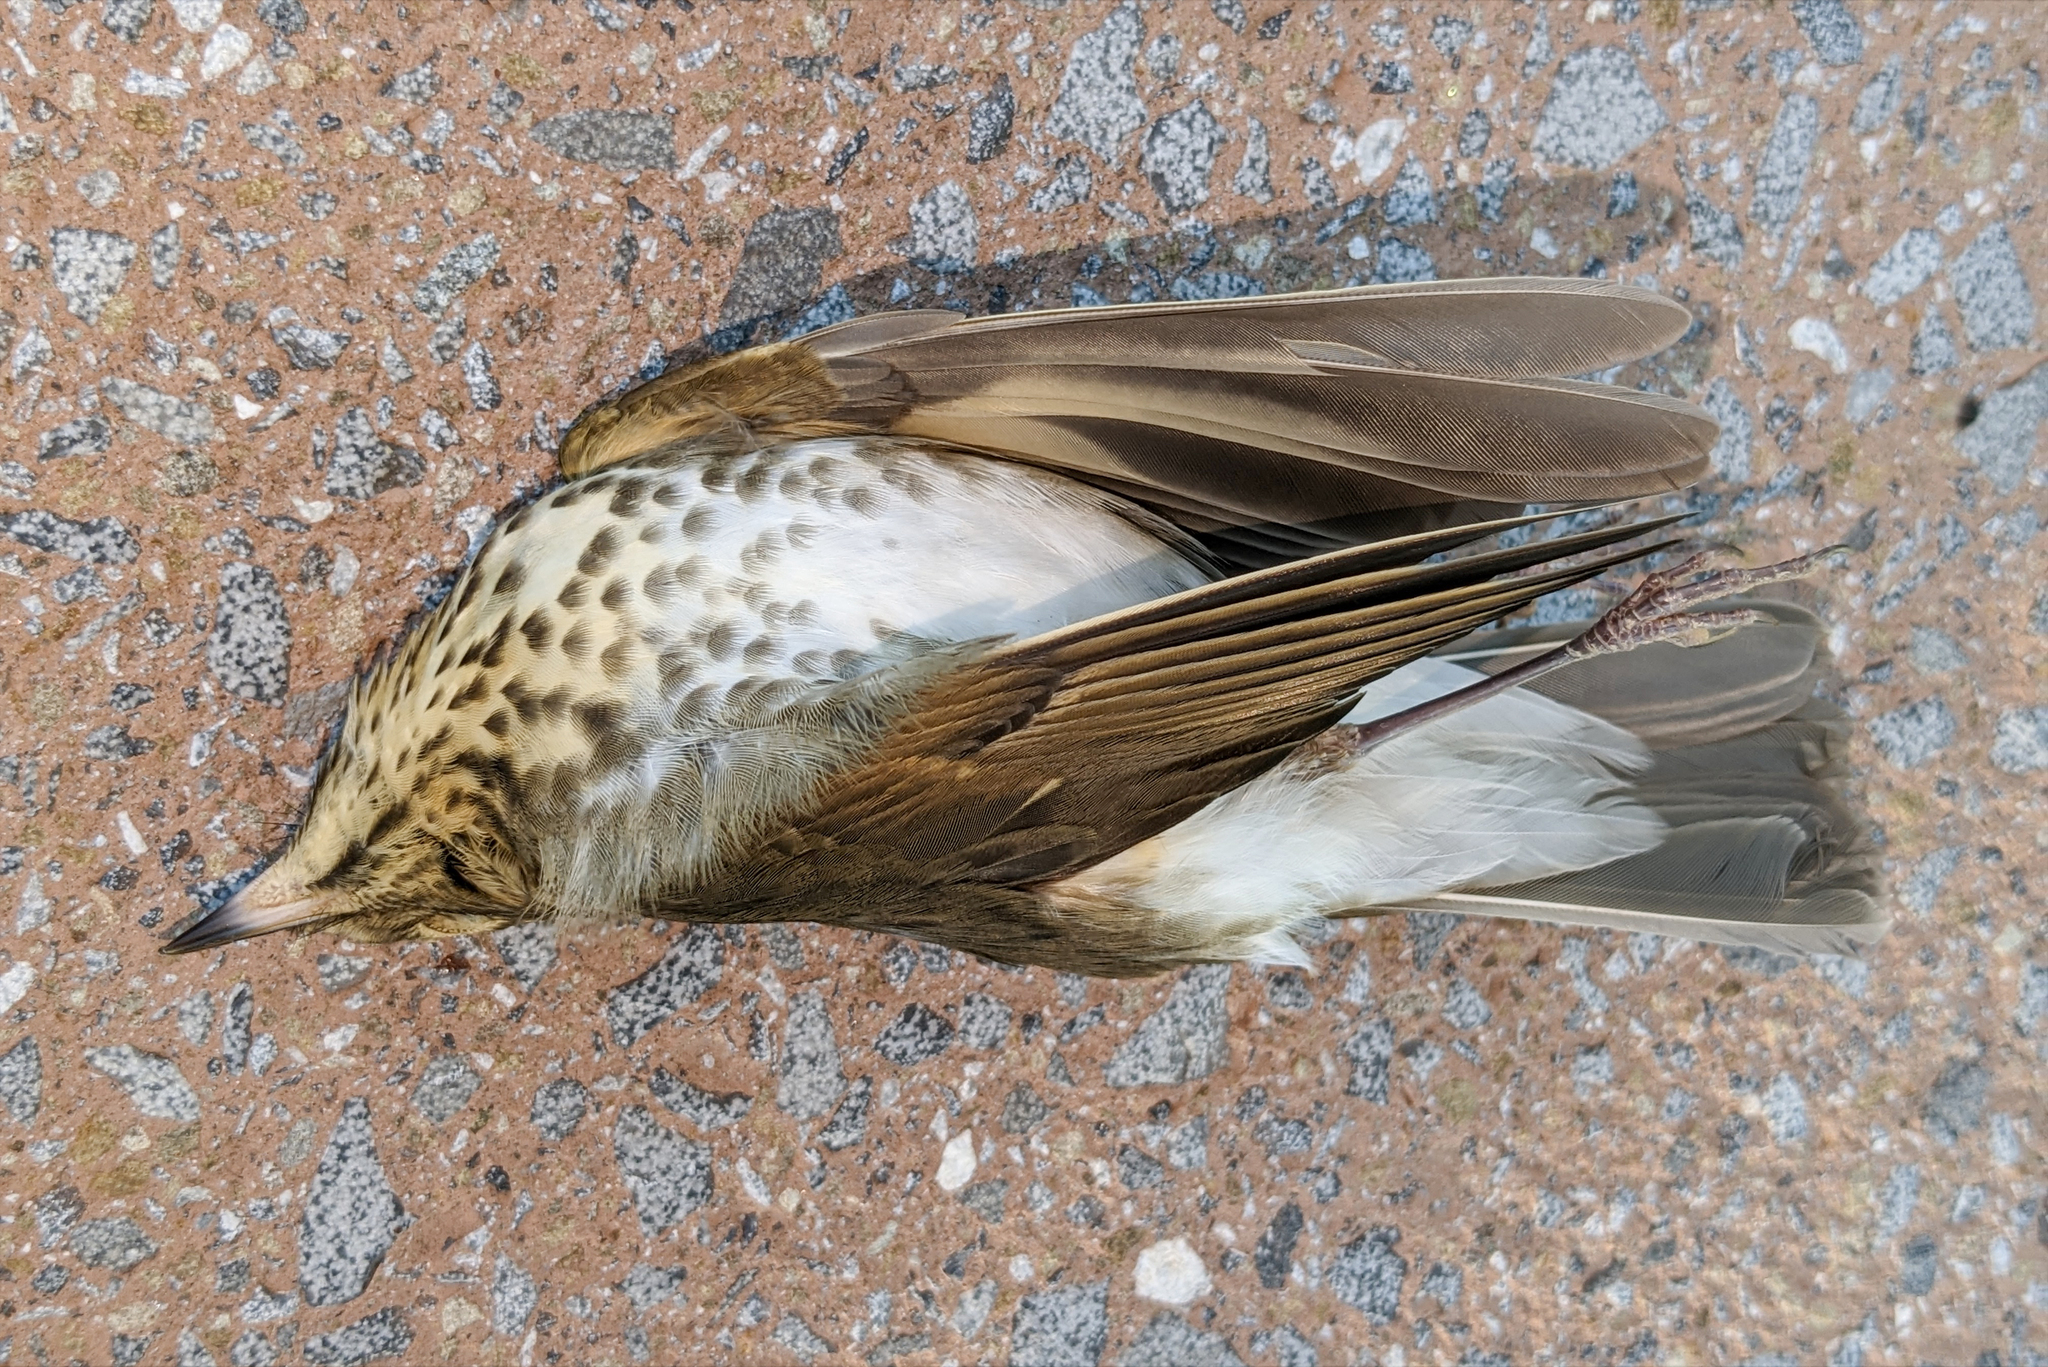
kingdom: Animalia
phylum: Chordata
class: Aves
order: Passeriformes
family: Turdidae
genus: Catharus
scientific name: Catharus ustulatus
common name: Swainson's thrush
